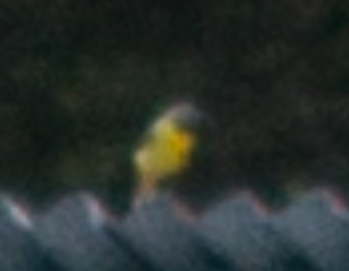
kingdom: Animalia
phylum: Chordata
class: Aves
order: Passeriformes
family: Motacillidae
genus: Motacilla
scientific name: Motacilla cinerea
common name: Grey wagtail
